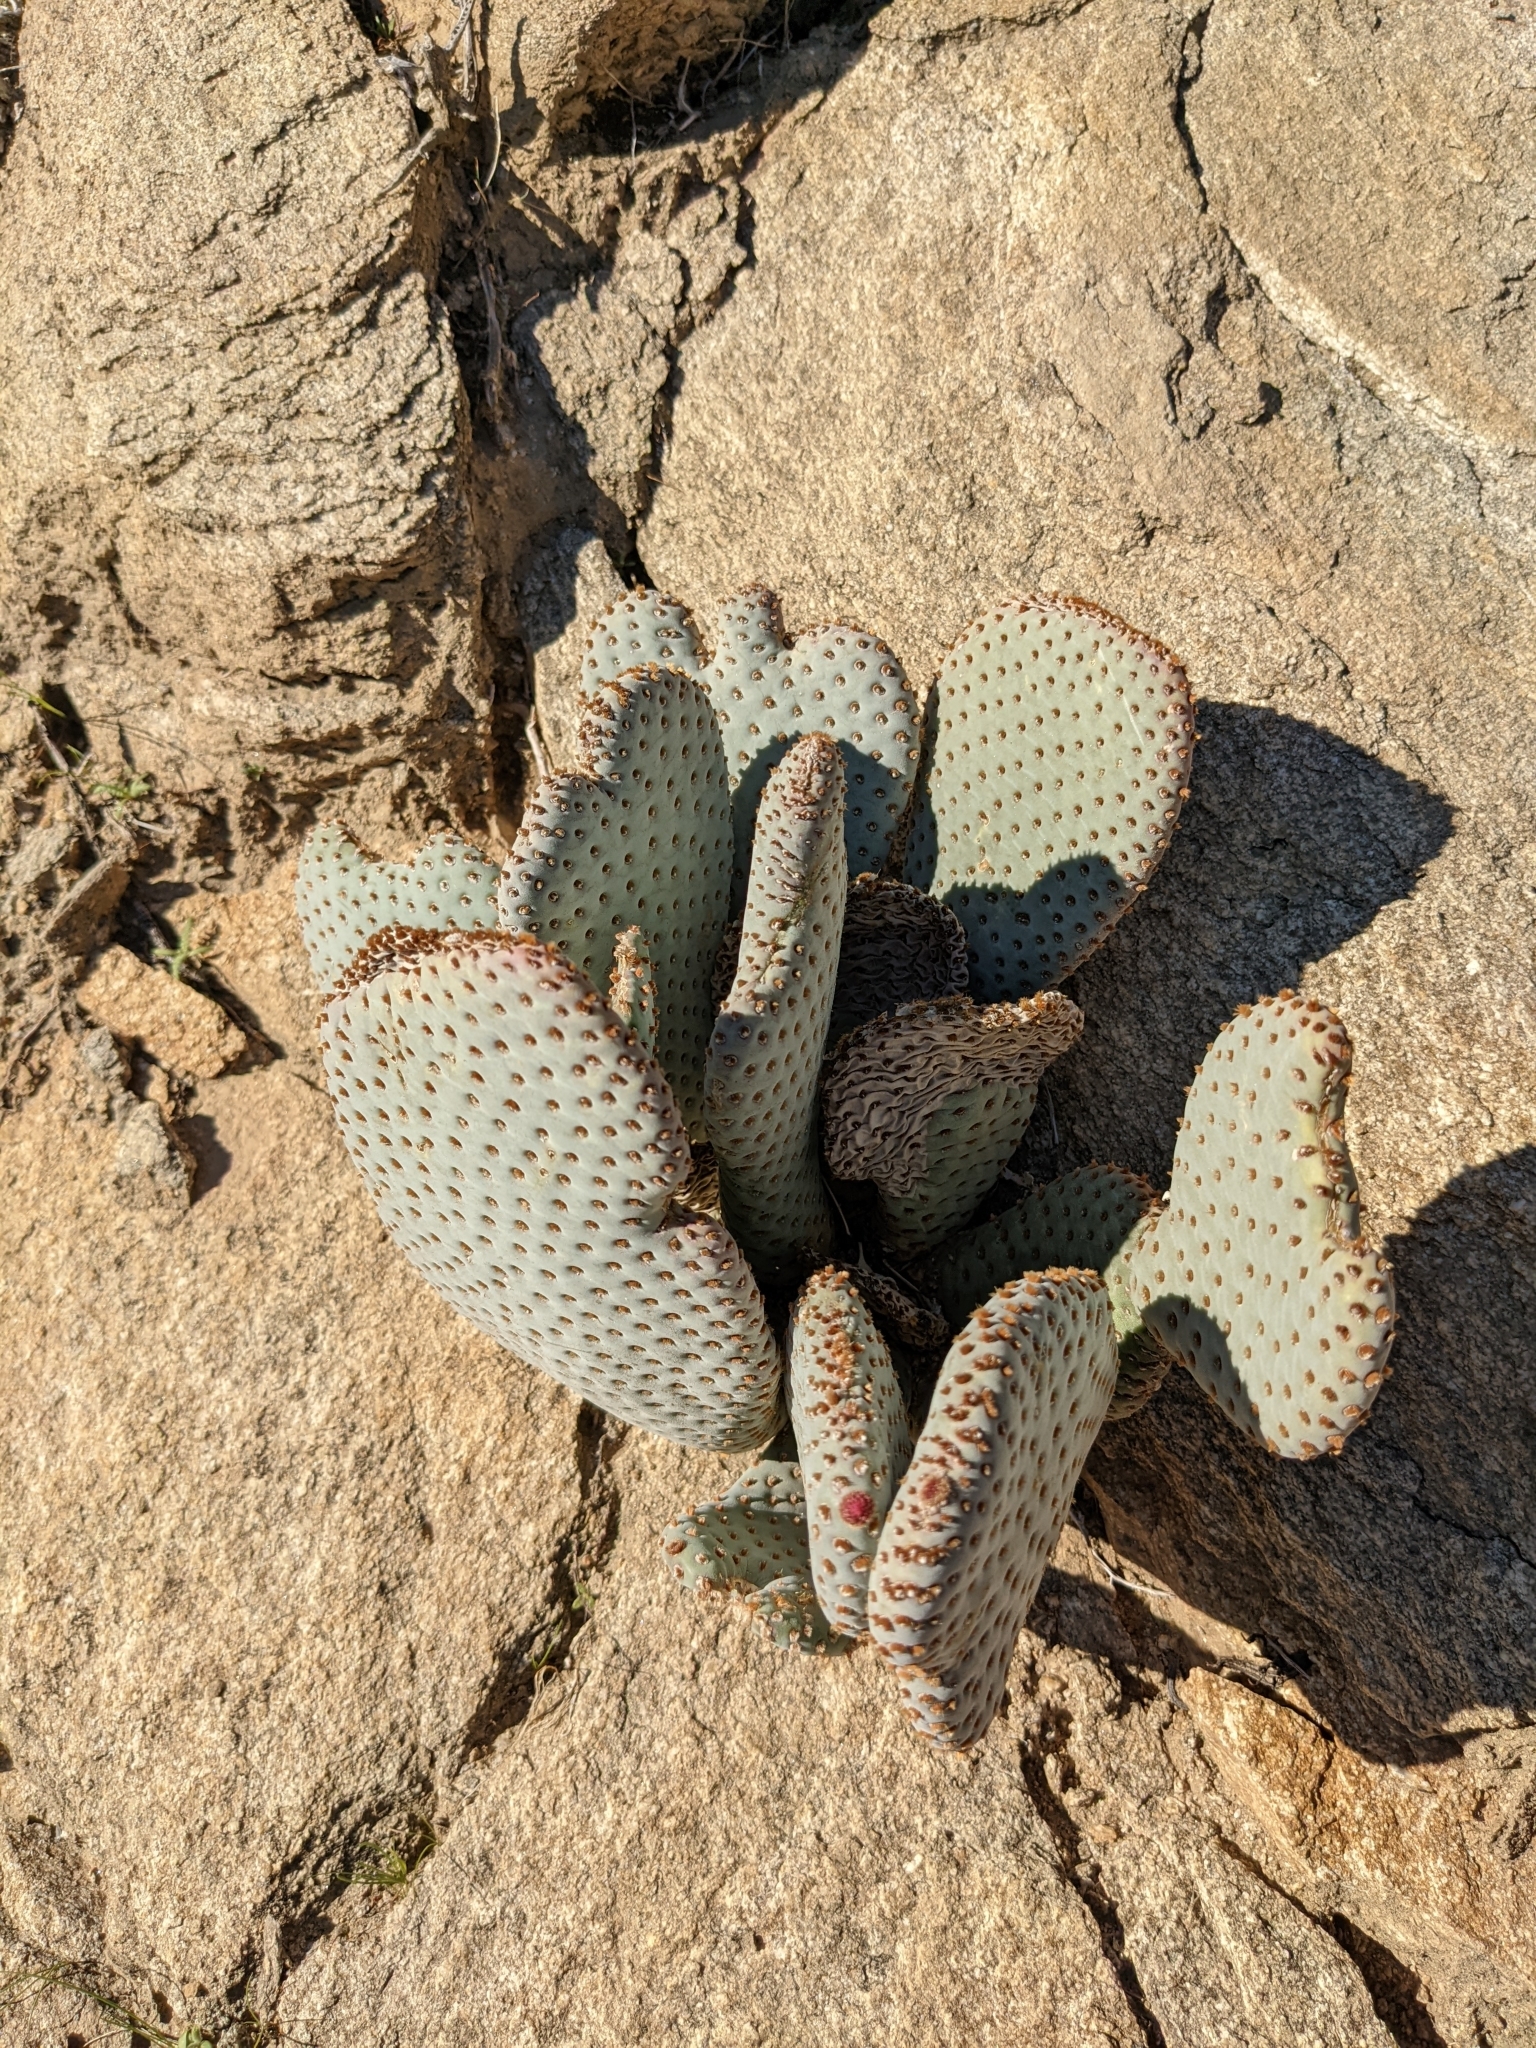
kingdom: Plantae
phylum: Tracheophyta
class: Magnoliopsida
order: Caryophyllales
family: Cactaceae
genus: Opuntia
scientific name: Opuntia basilaris
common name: Beavertail prickly-pear
